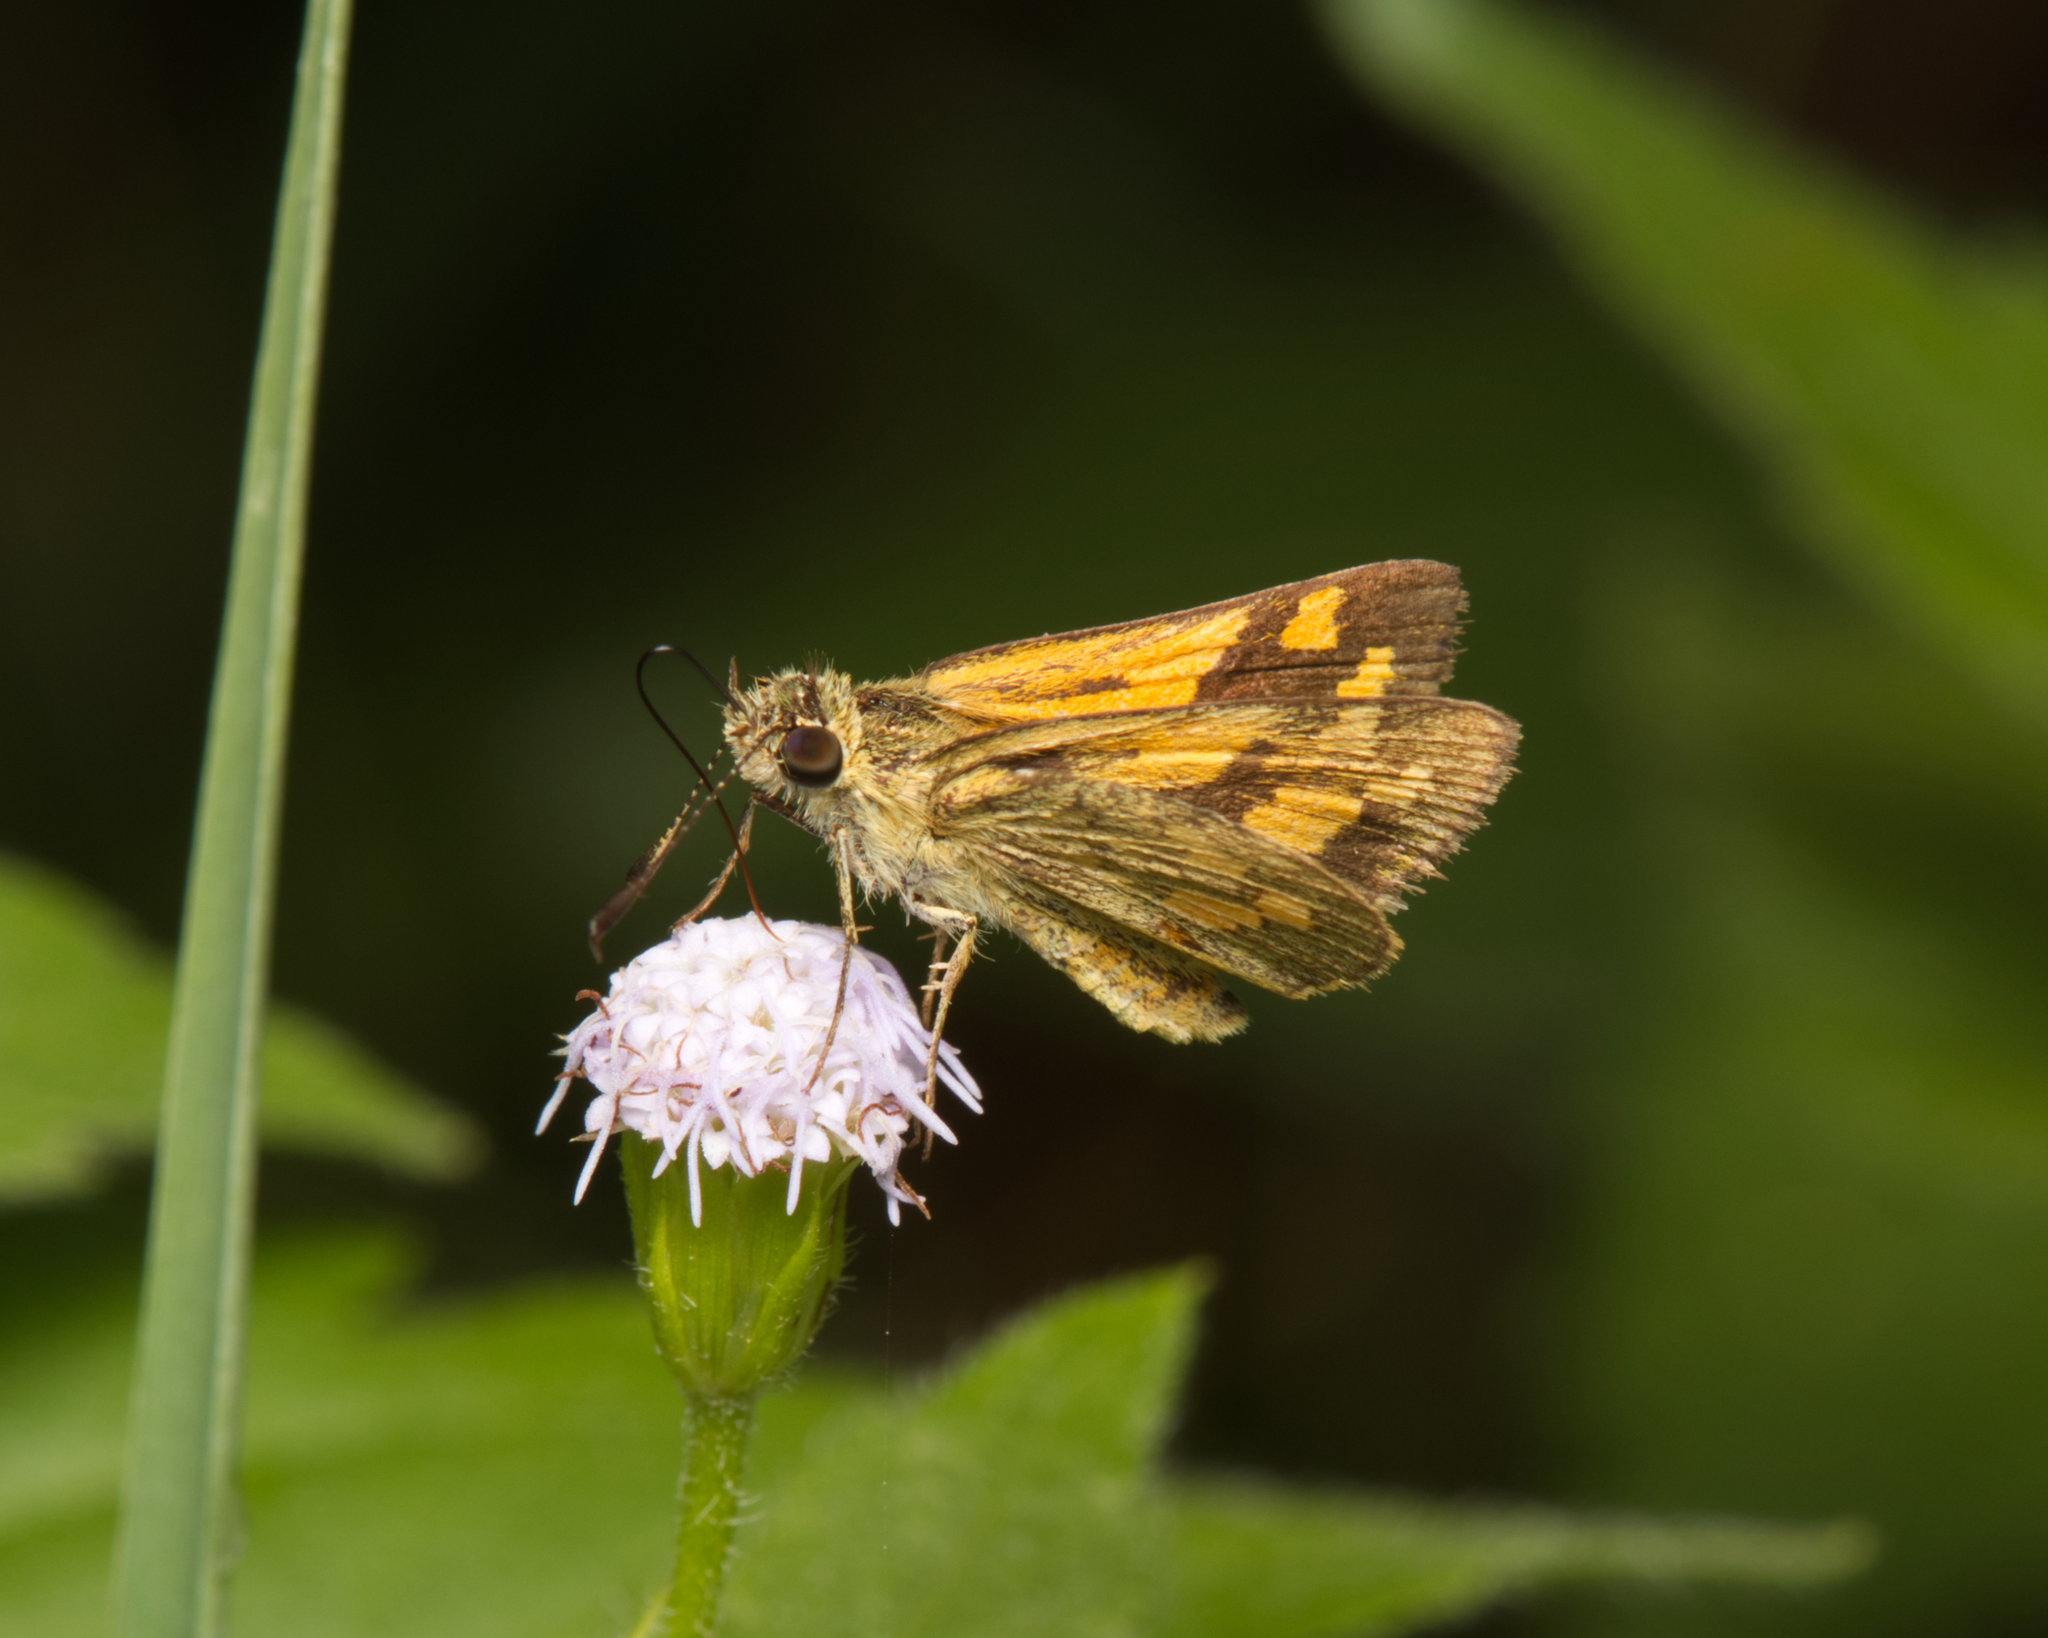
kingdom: Animalia
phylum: Arthropoda
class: Insecta
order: Lepidoptera
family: Hesperiidae
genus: Ocybadistes
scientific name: Ocybadistes walkeri
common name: Yellow-banded dart
